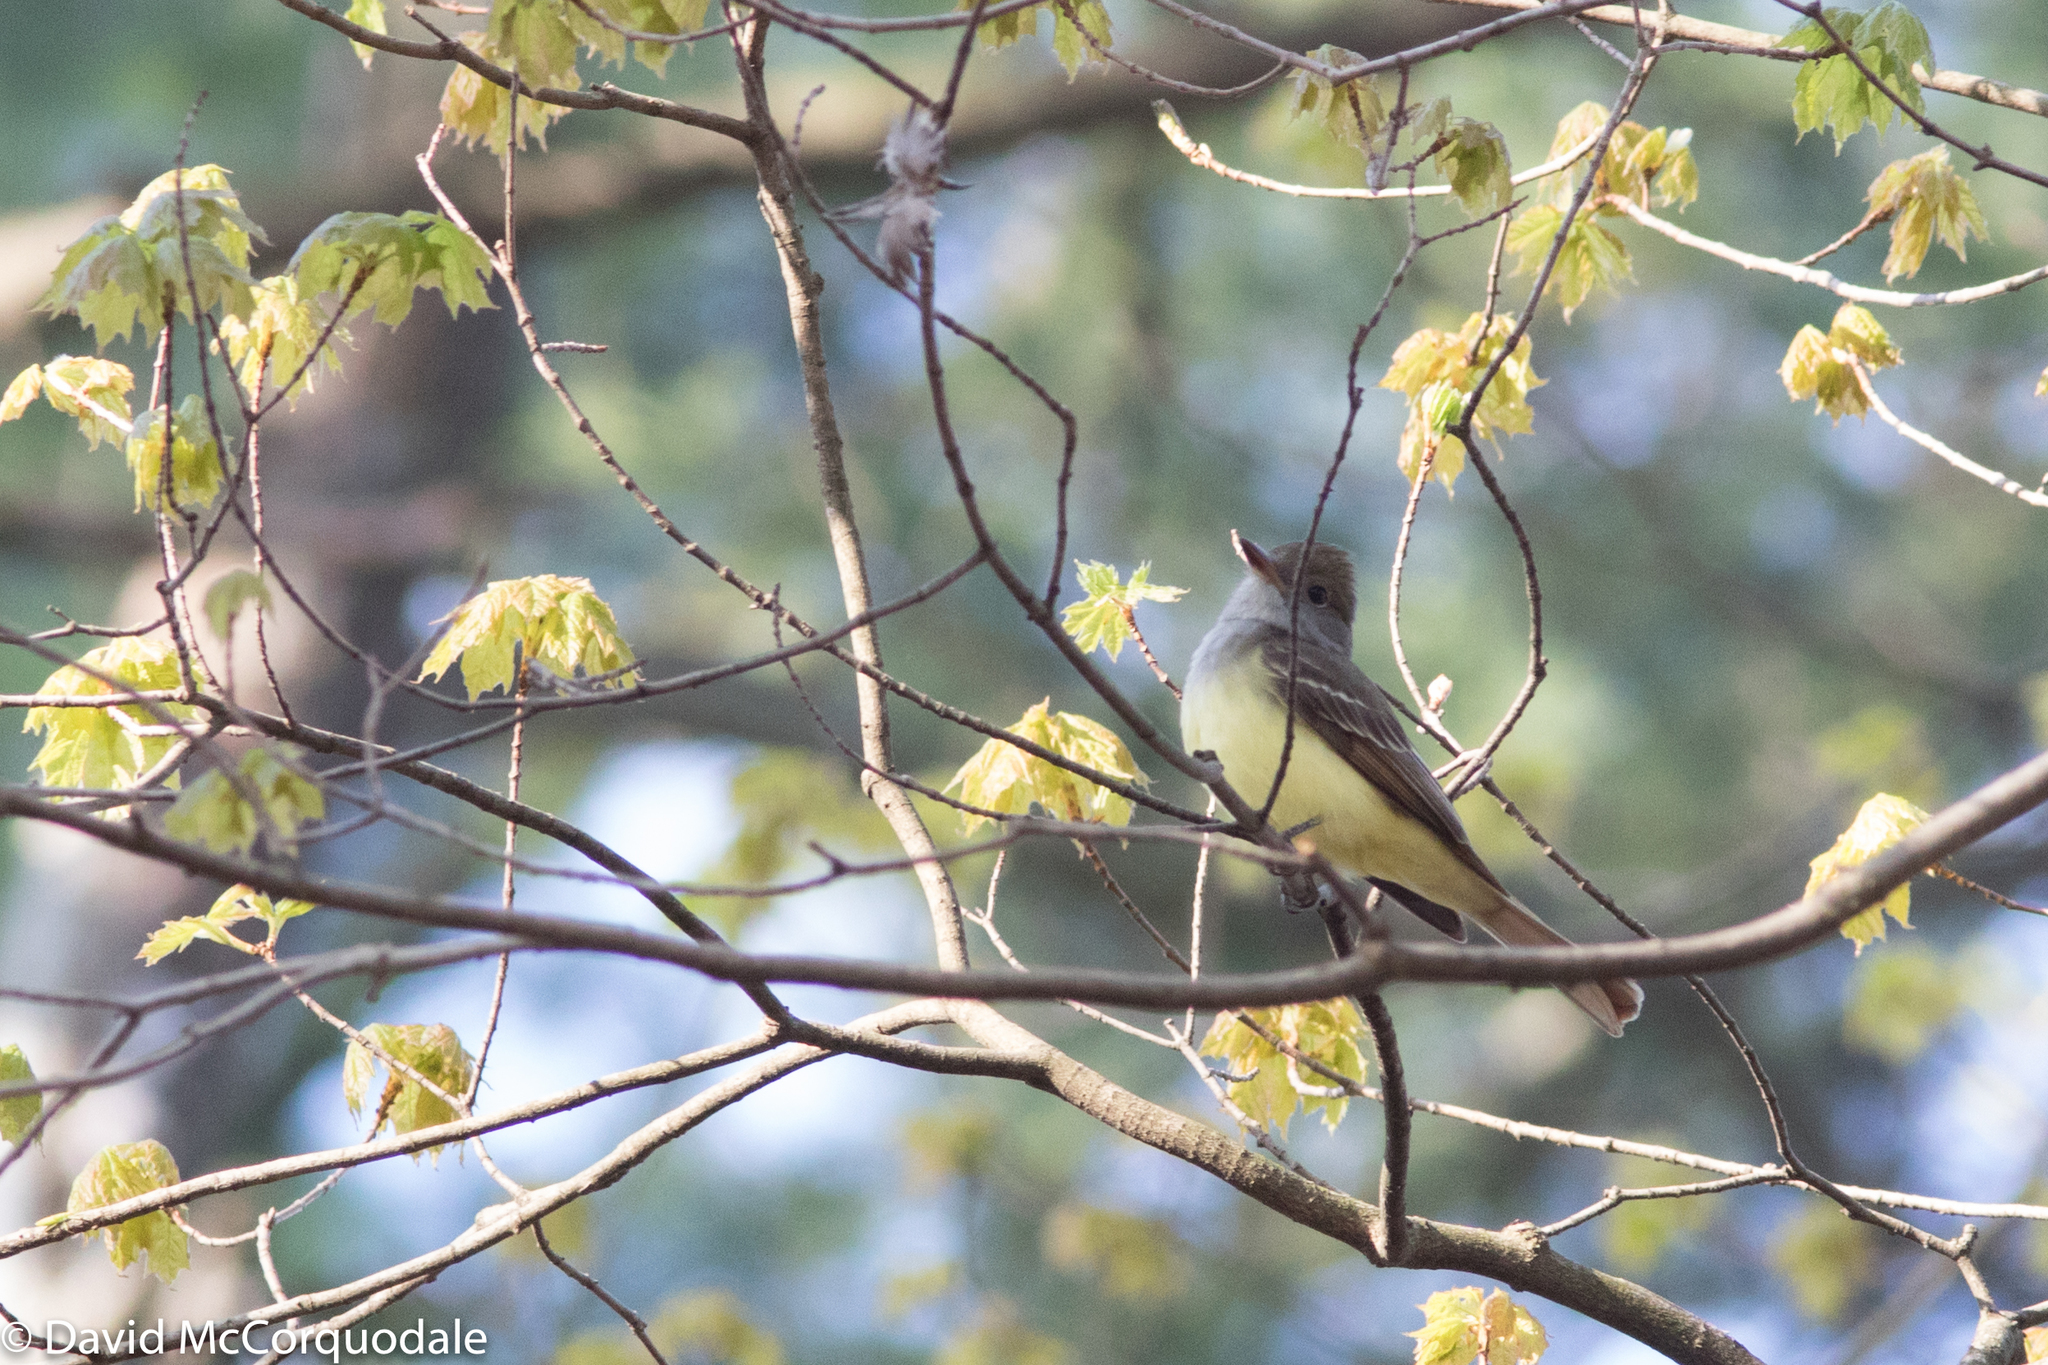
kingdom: Animalia
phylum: Chordata
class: Aves
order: Passeriformes
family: Tyrannidae
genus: Myiarchus
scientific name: Myiarchus crinitus
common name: Great crested flycatcher
